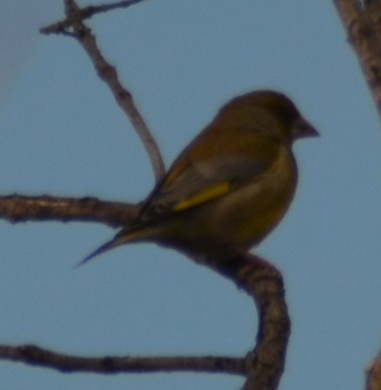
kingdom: Plantae
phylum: Tracheophyta
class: Liliopsida
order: Poales
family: Poaceae
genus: Chloris
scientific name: Chloris chloris
